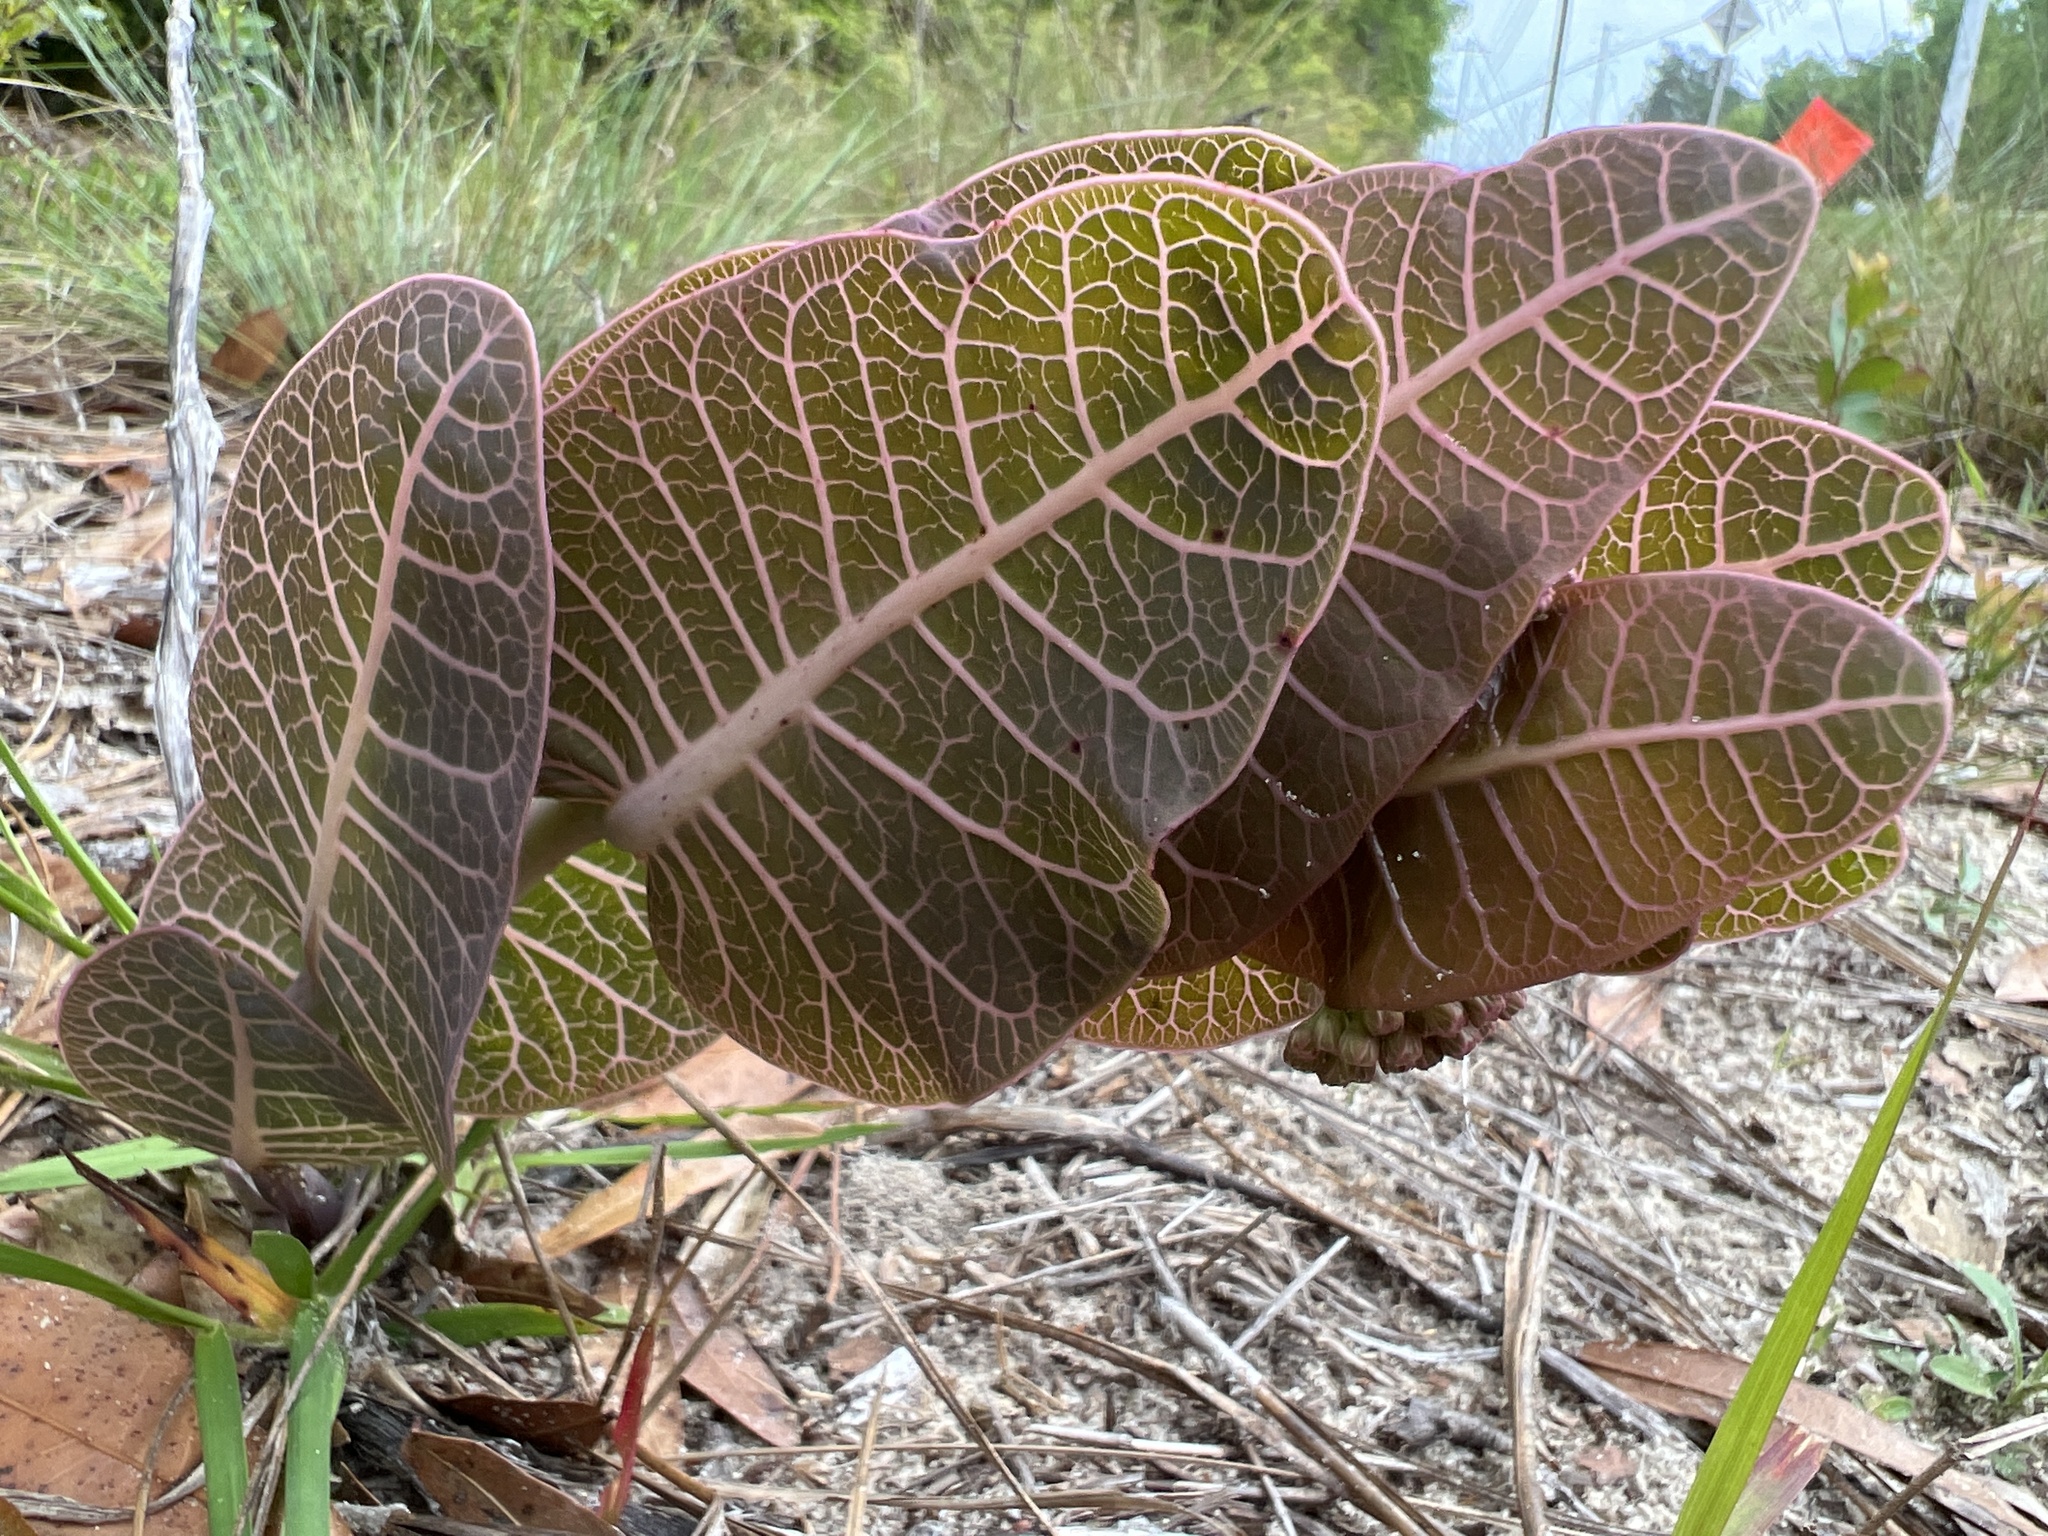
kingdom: Plantae
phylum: Tracheophyta
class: Magnoliopsida
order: Gentianales
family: Apocynaceae
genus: Asclepias
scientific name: Asclepias humistrata
